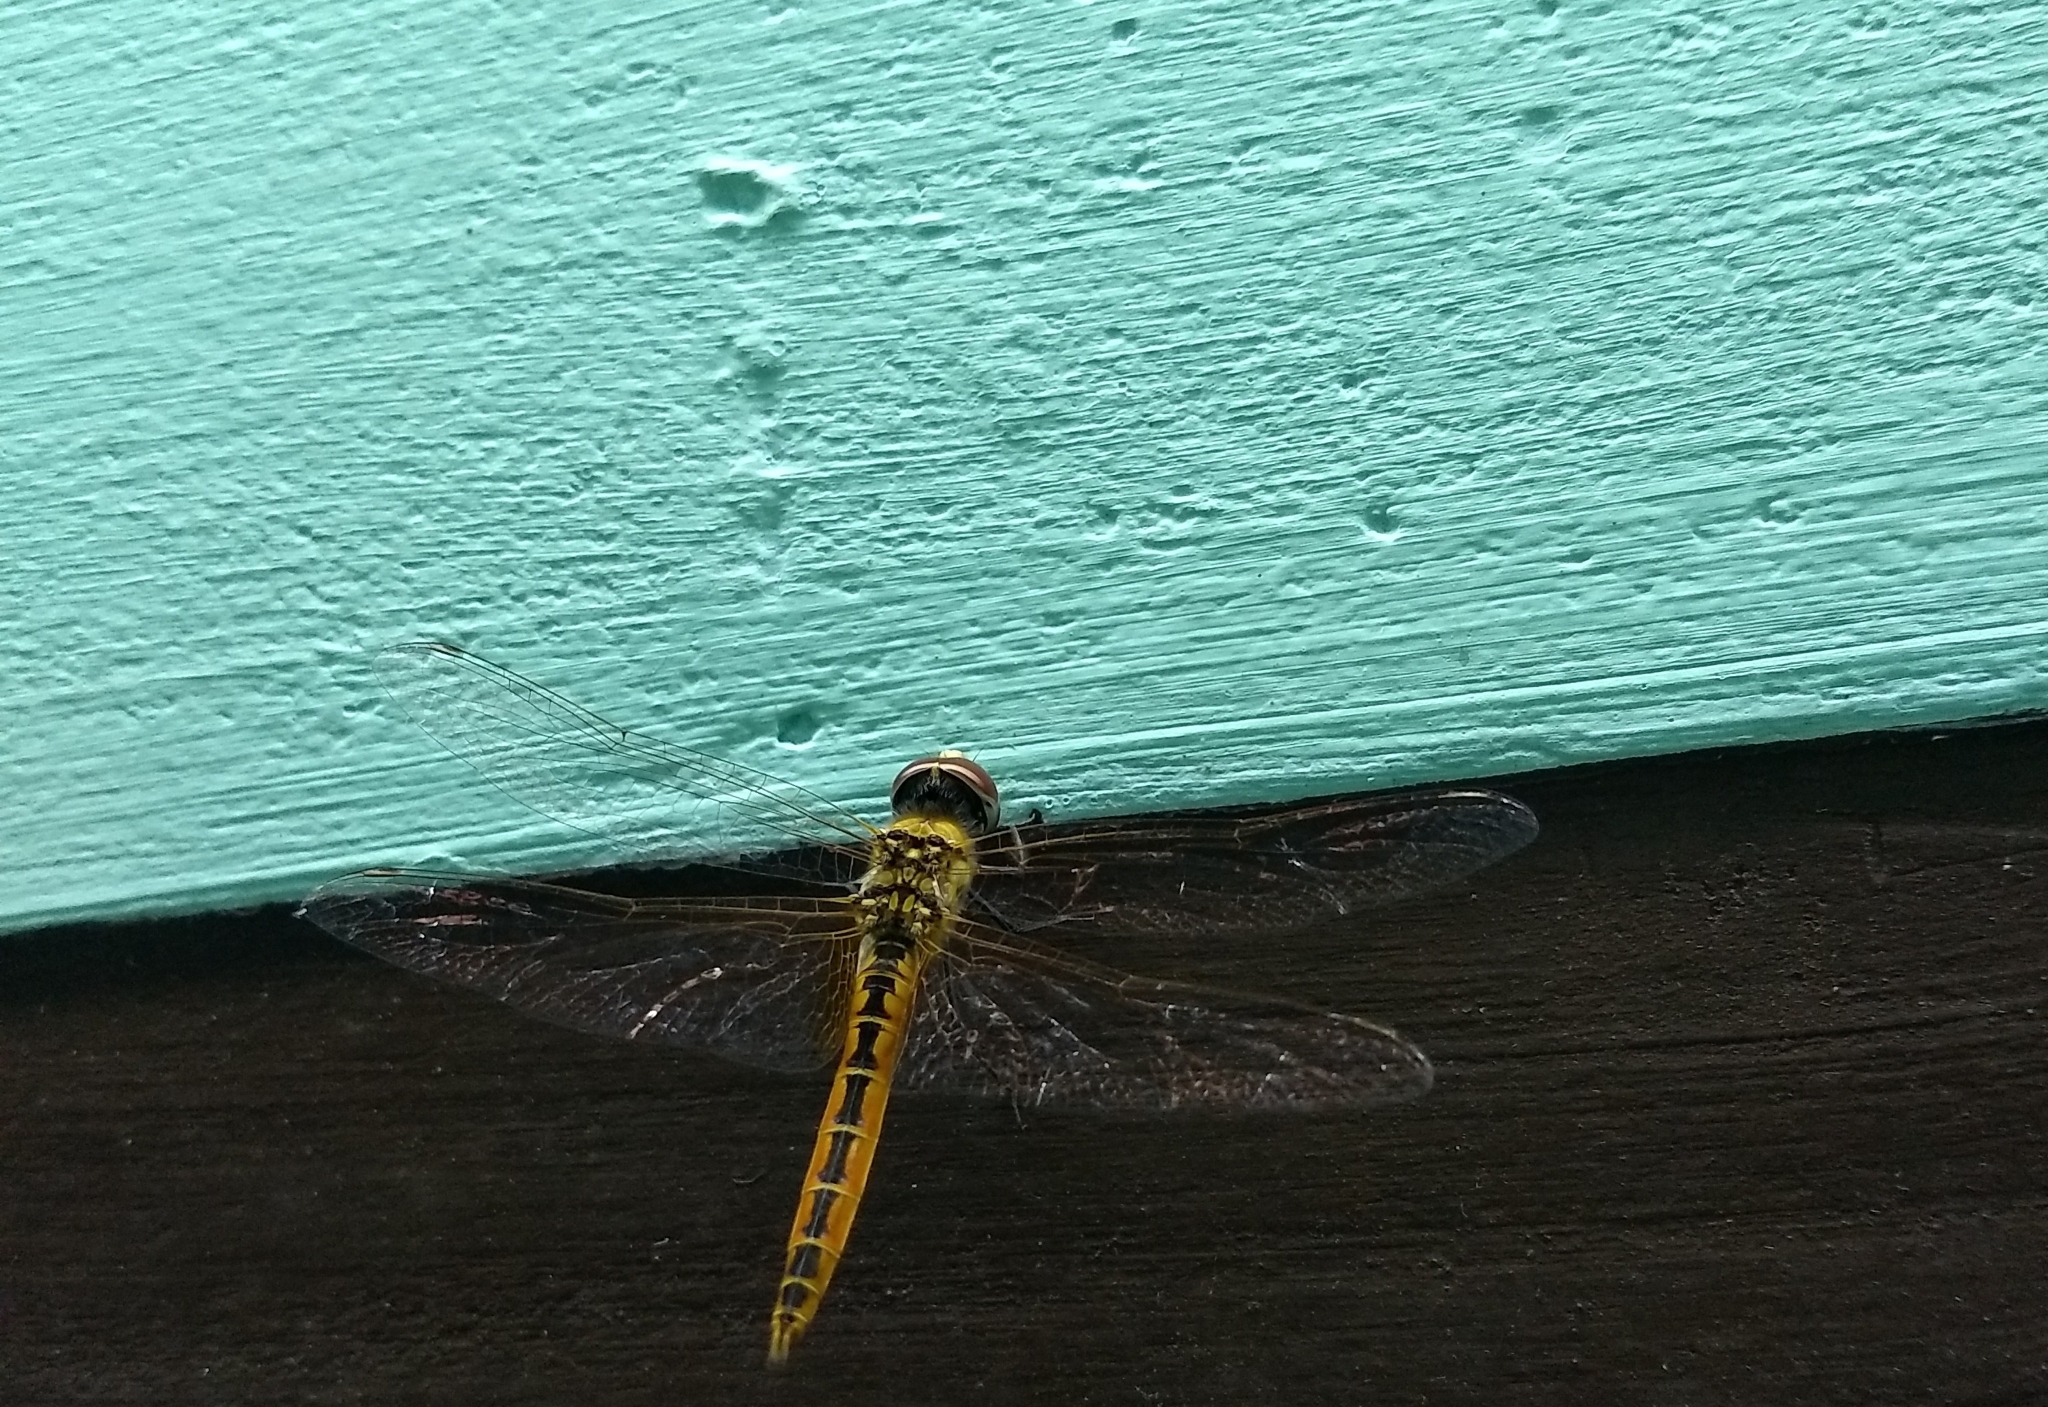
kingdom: Animalia
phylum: Arthropoda
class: Insecta
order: Odonata
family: Libellulidae
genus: Macrodiplax
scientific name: Macrodiplax cora
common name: Coastal glider
